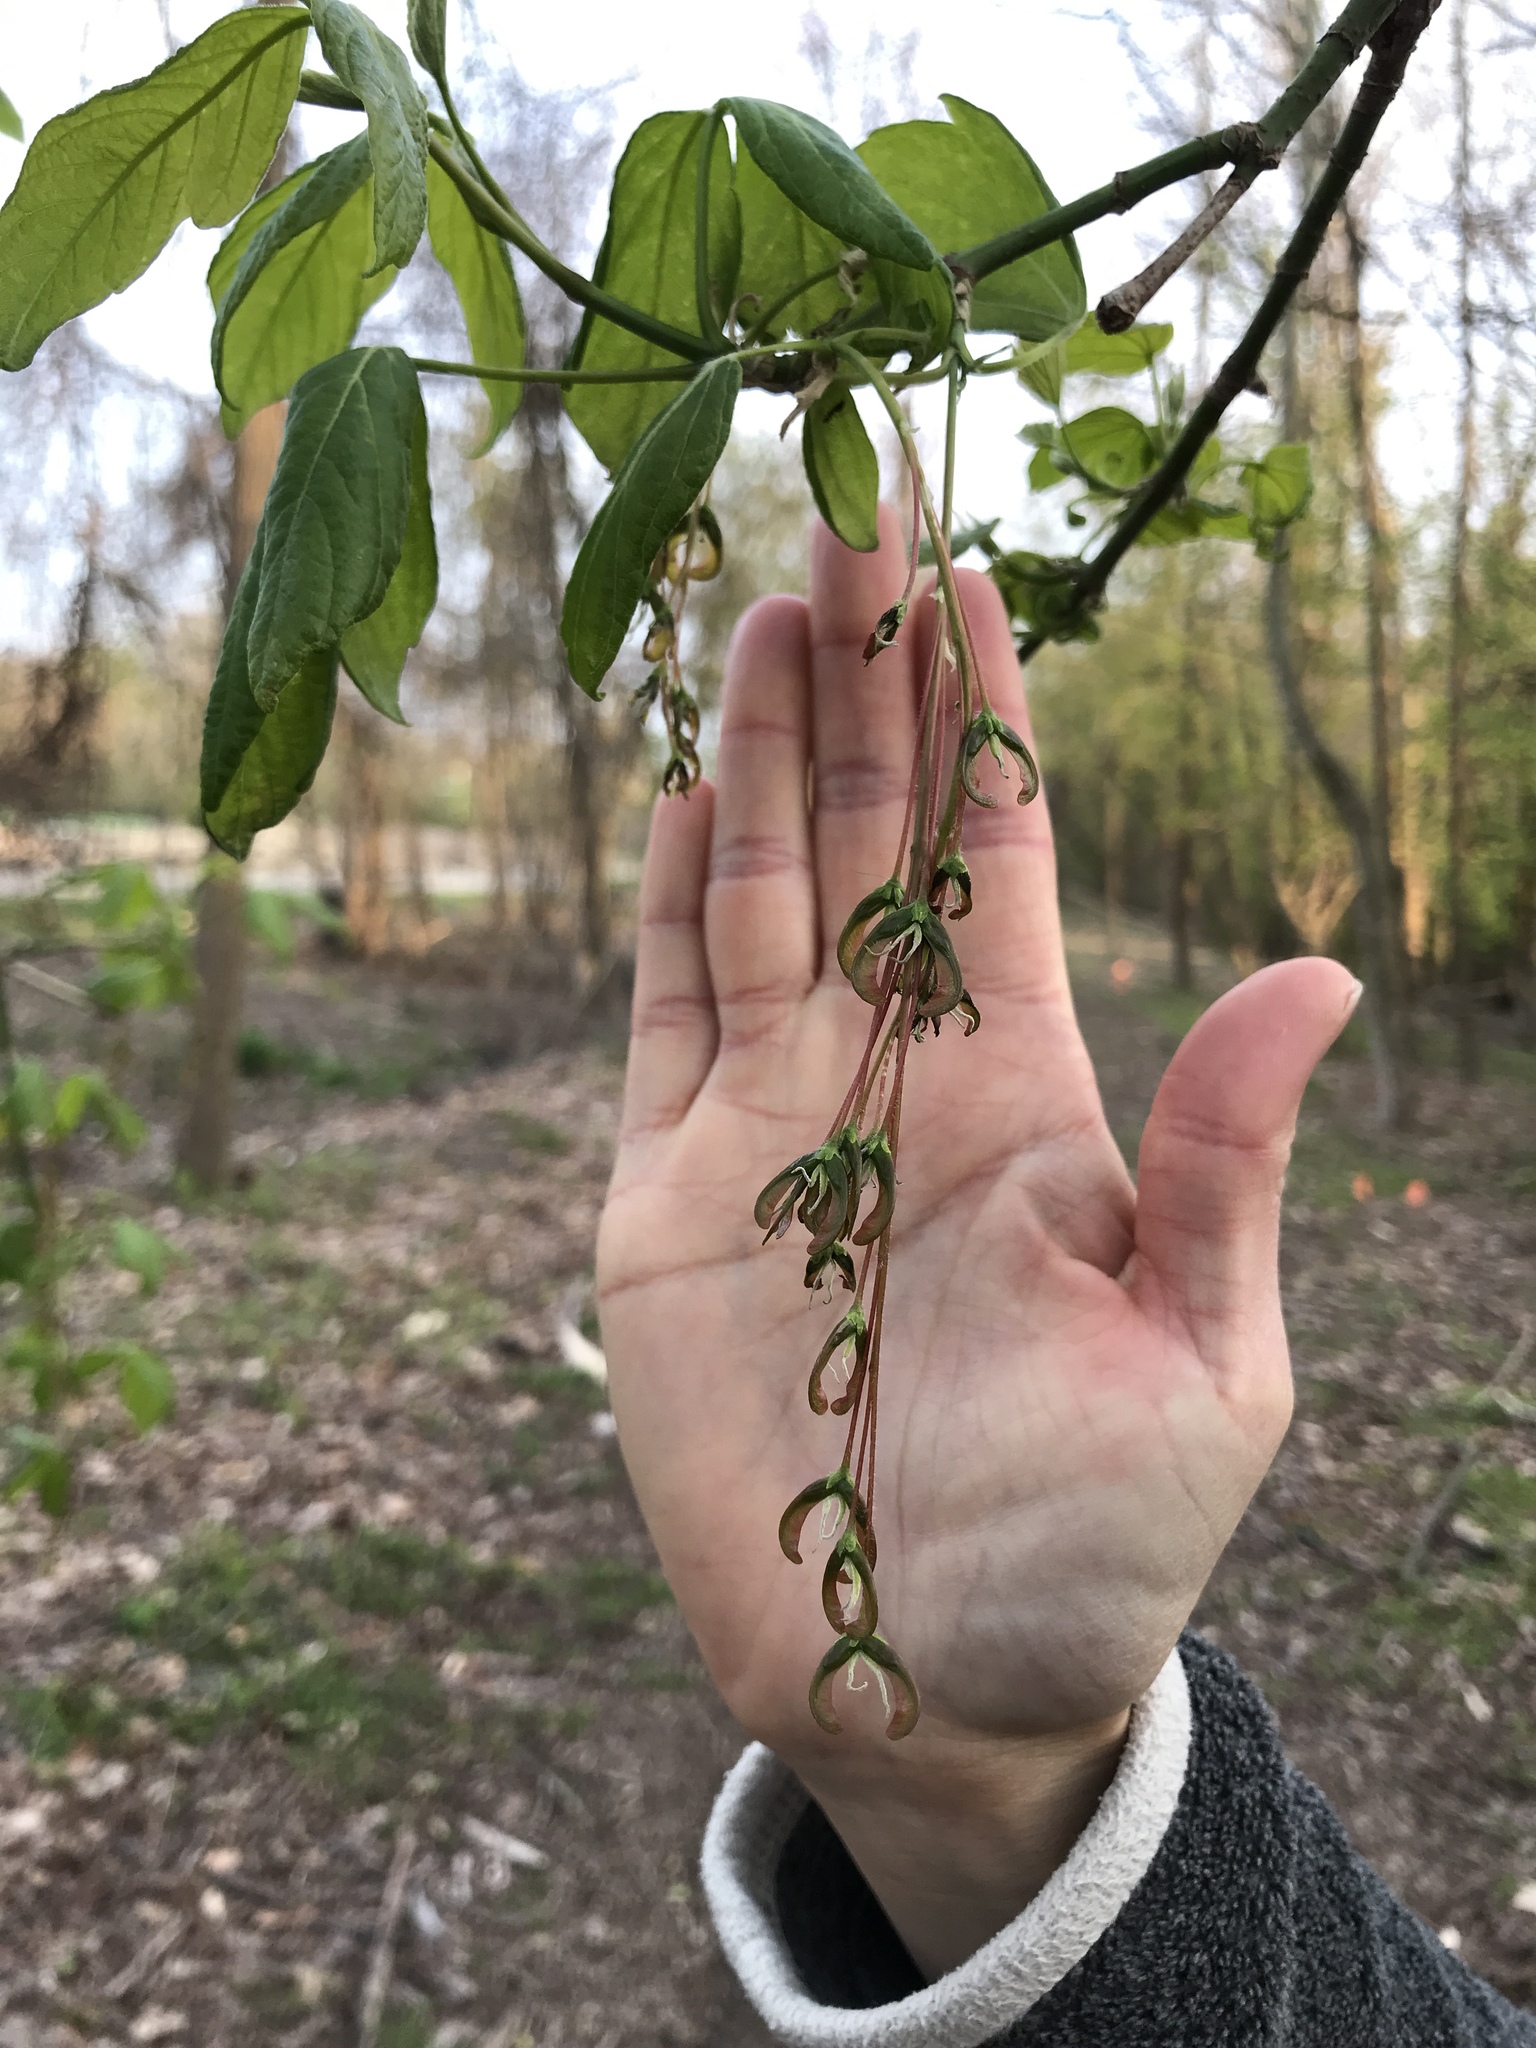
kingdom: Plantae
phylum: Tracheophyta
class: Magnoliopsida
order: Sapindales
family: Sapindaceae
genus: Acer
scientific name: Acer negundo
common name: Ashleaf maple
